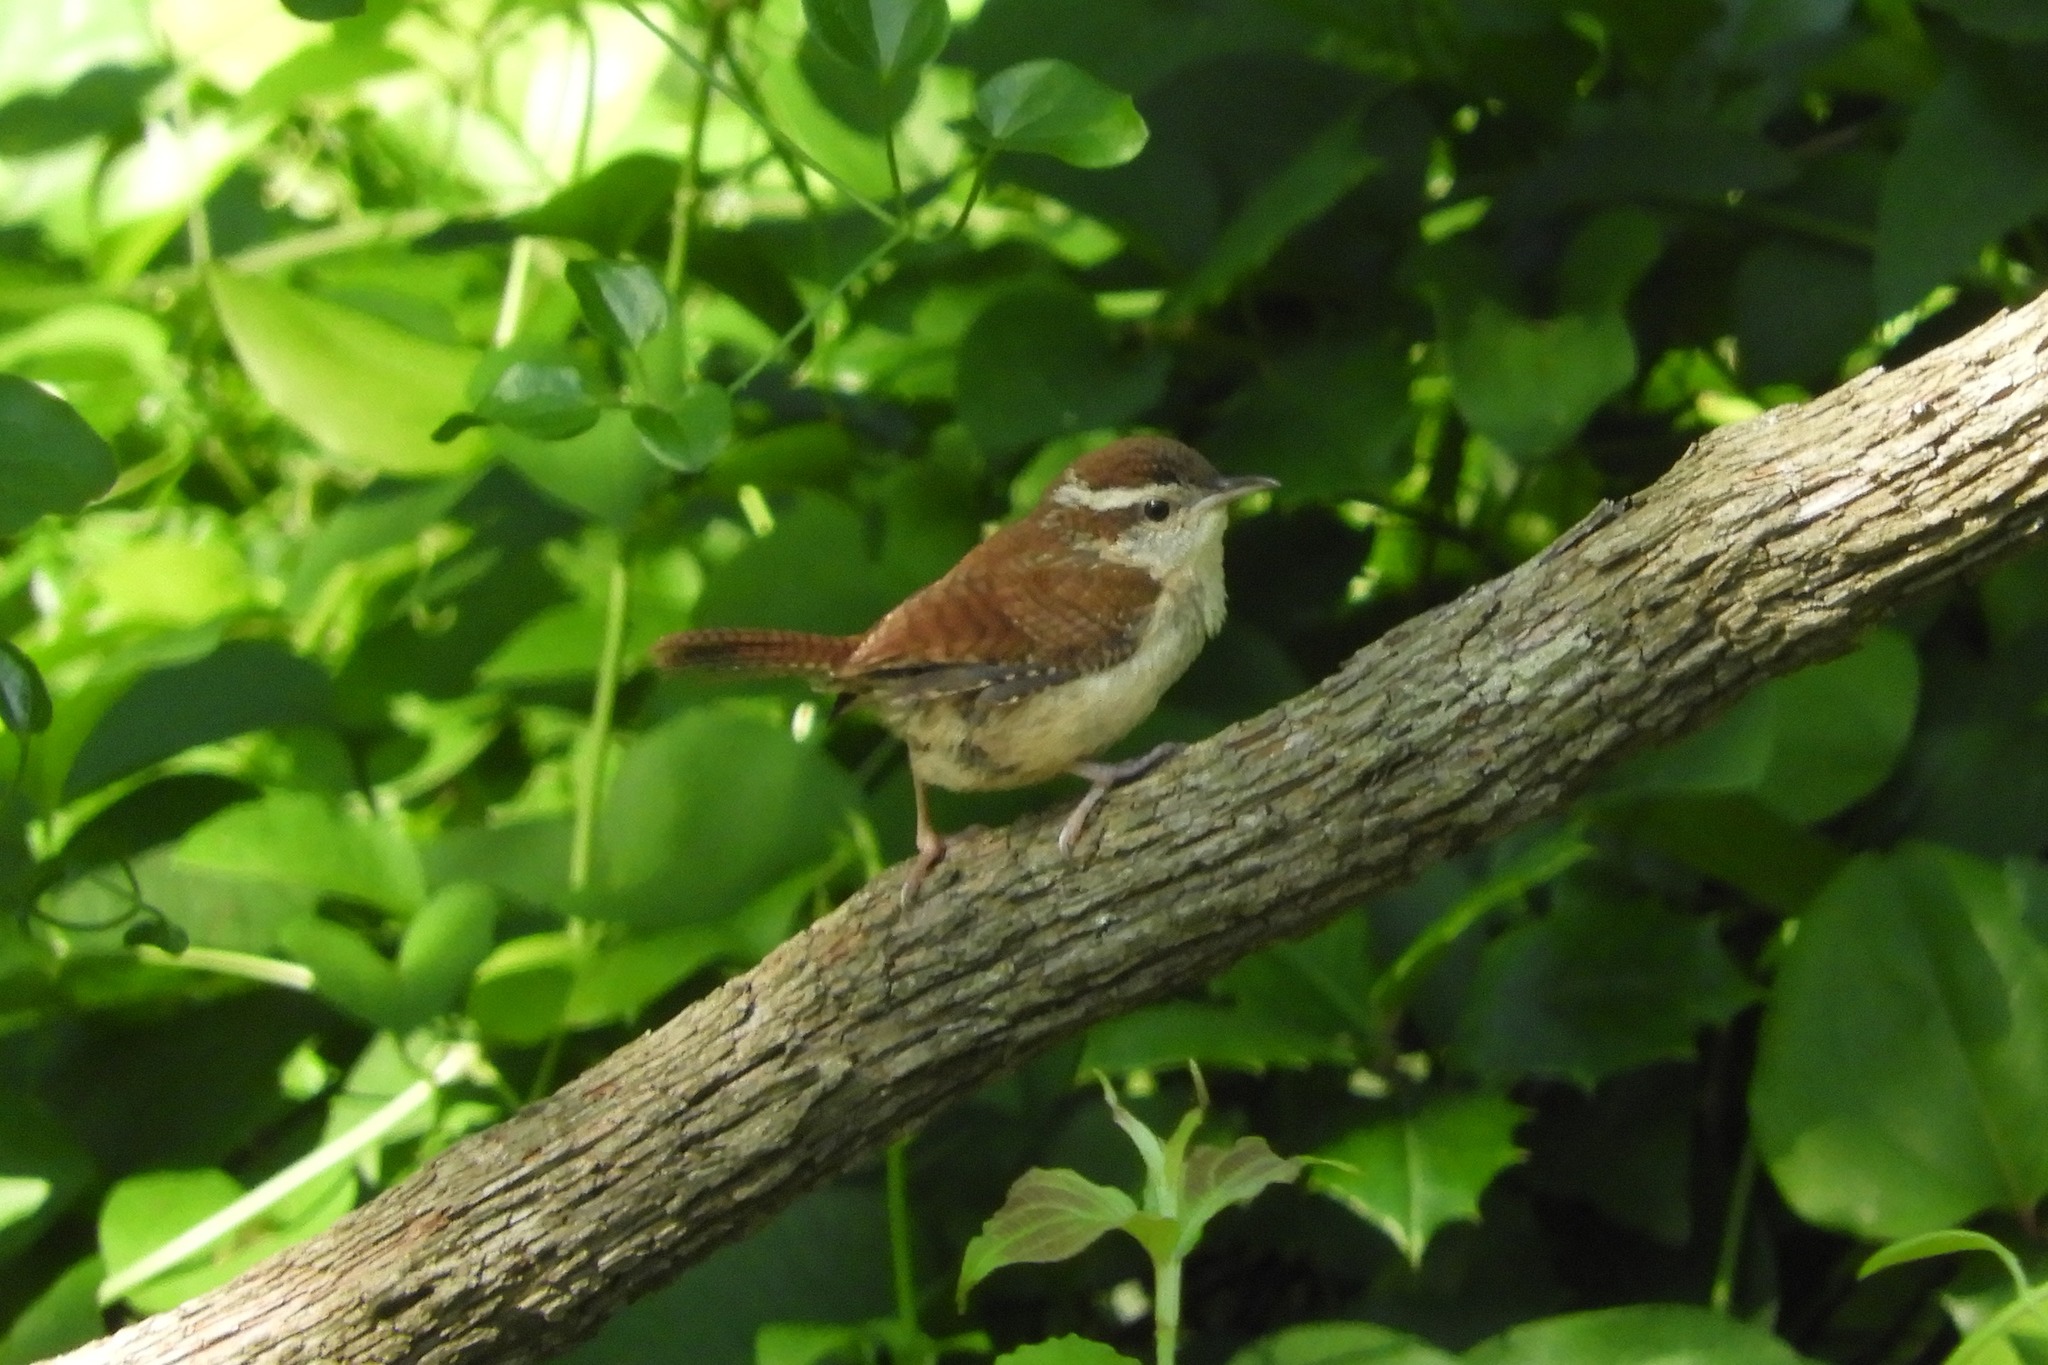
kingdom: Animalia
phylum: Chordata
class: Aves
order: Passeriformes
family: Troglodytidae
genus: Thryothorus
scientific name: Thryothorus ludovicianus
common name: Carolina wren
